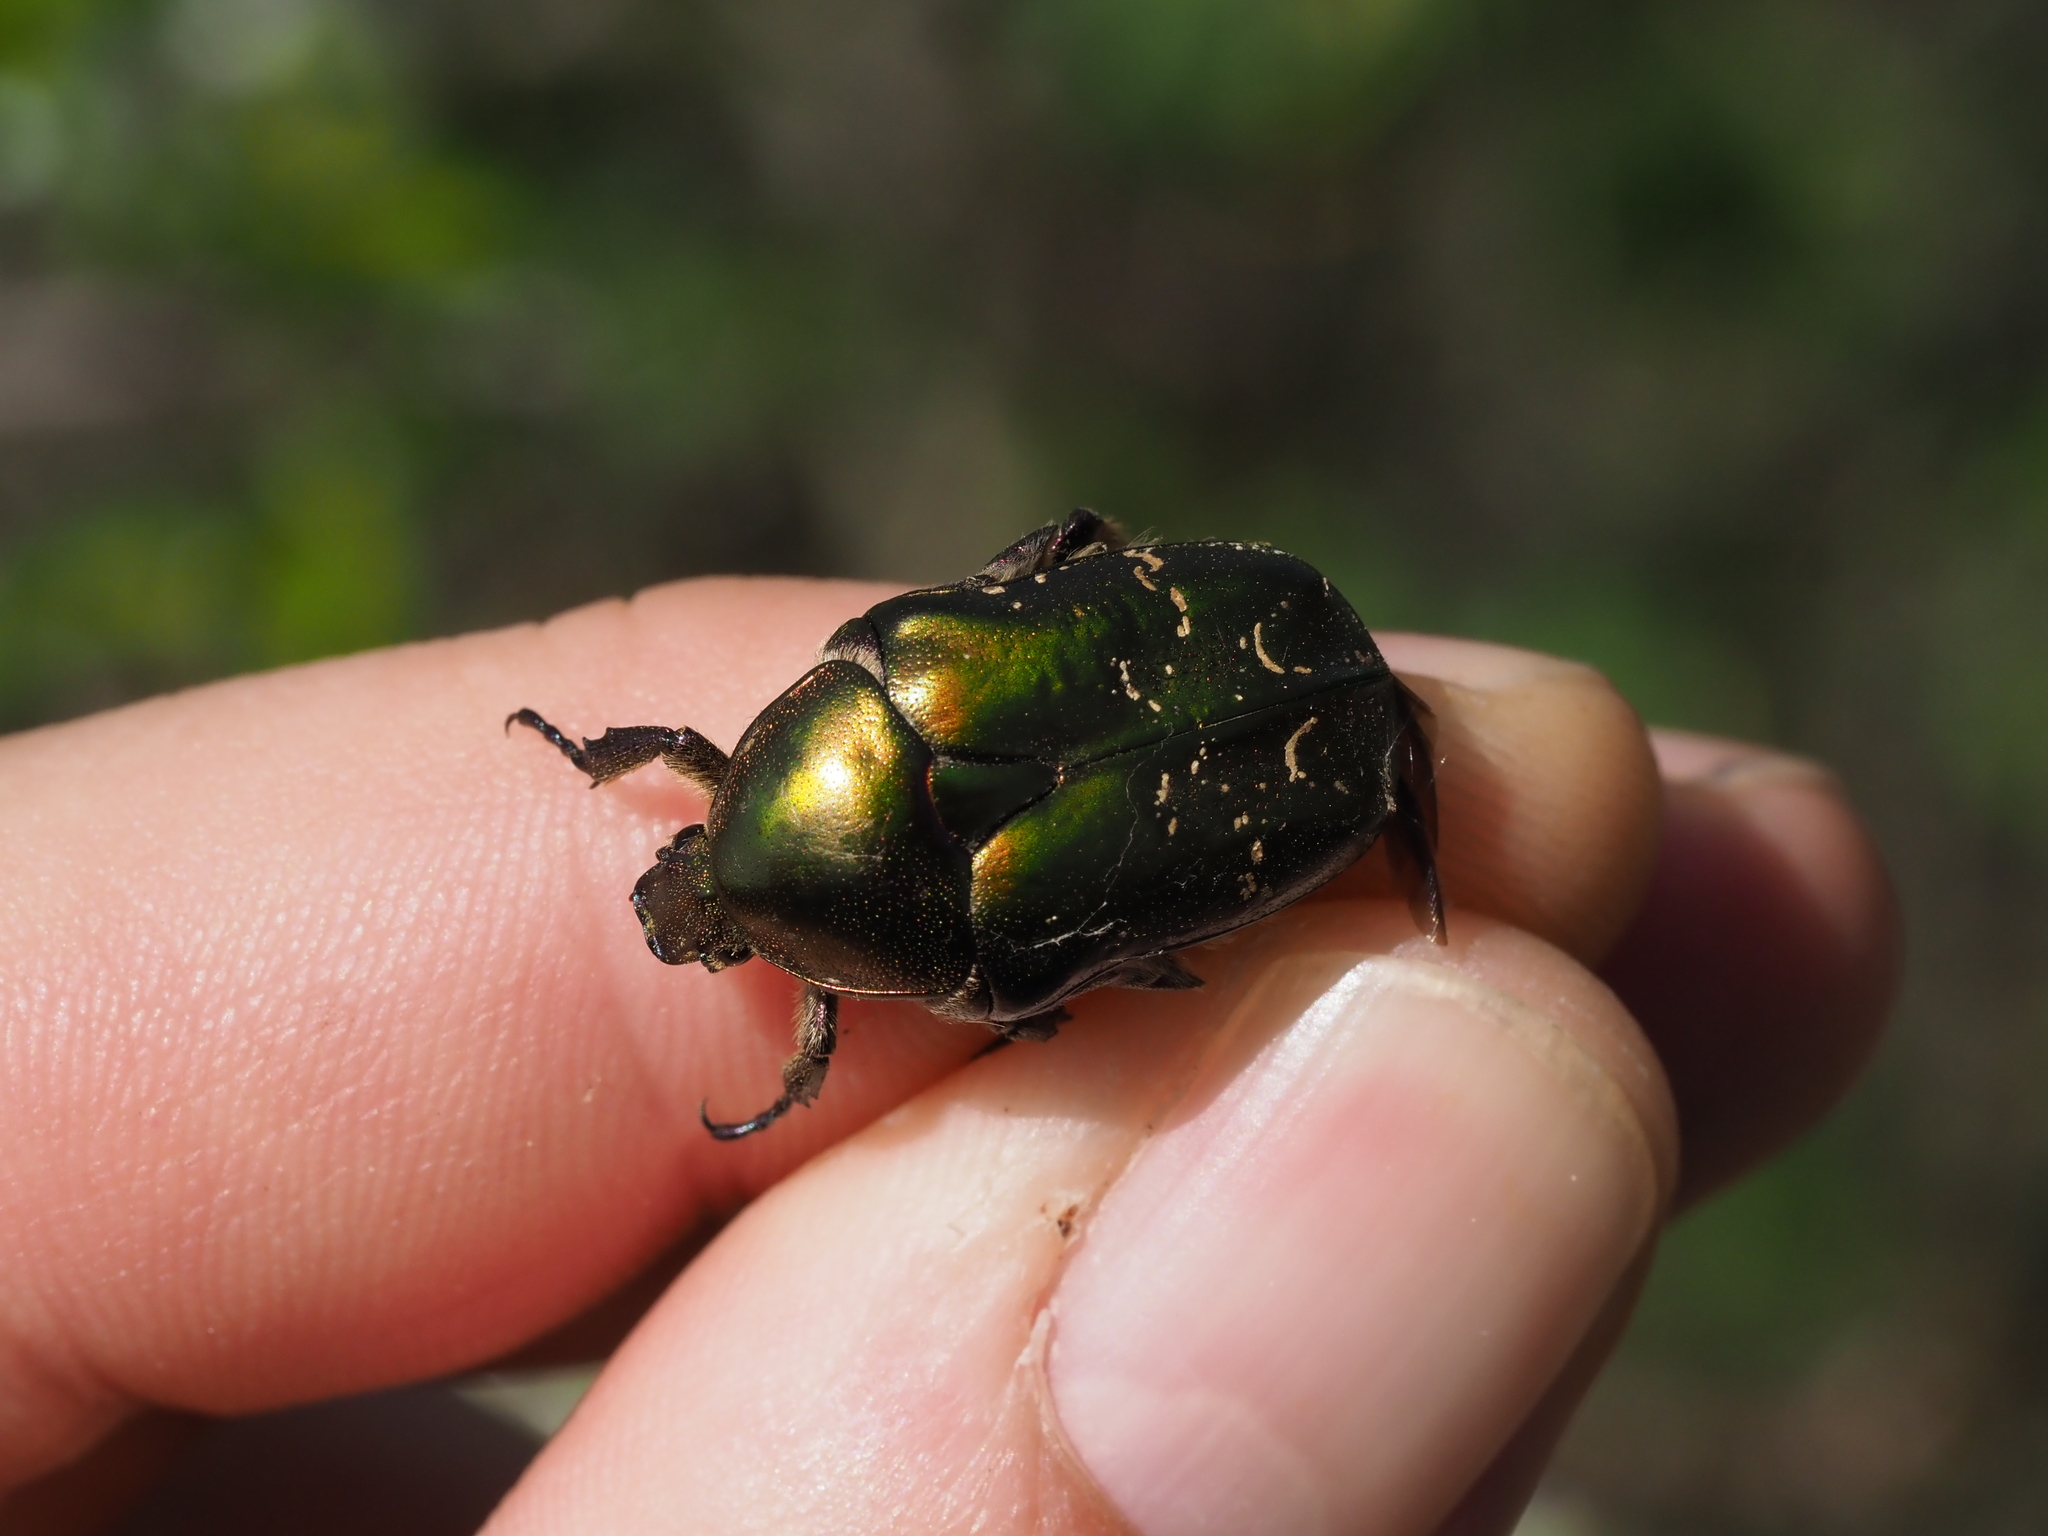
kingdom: Animalia
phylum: Arthropoda
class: Insecta
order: Coleoptera
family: Scarabaeidae
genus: Protaetia
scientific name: Protaetia cuprea
